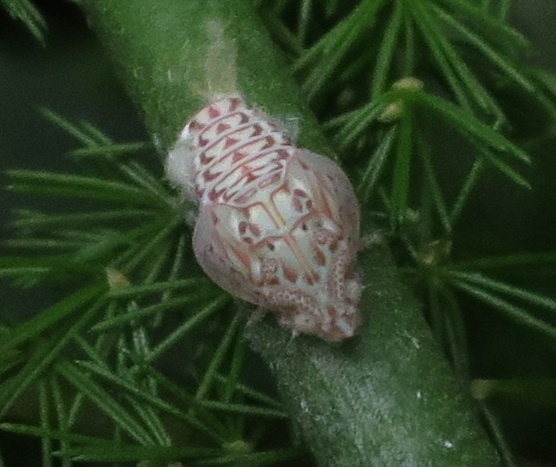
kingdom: Animalia
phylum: Arthropoda
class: Insecta
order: Hemiptera
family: Flatidae
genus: Siphanta
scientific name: Siphanta acuta
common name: Torpedo bug
